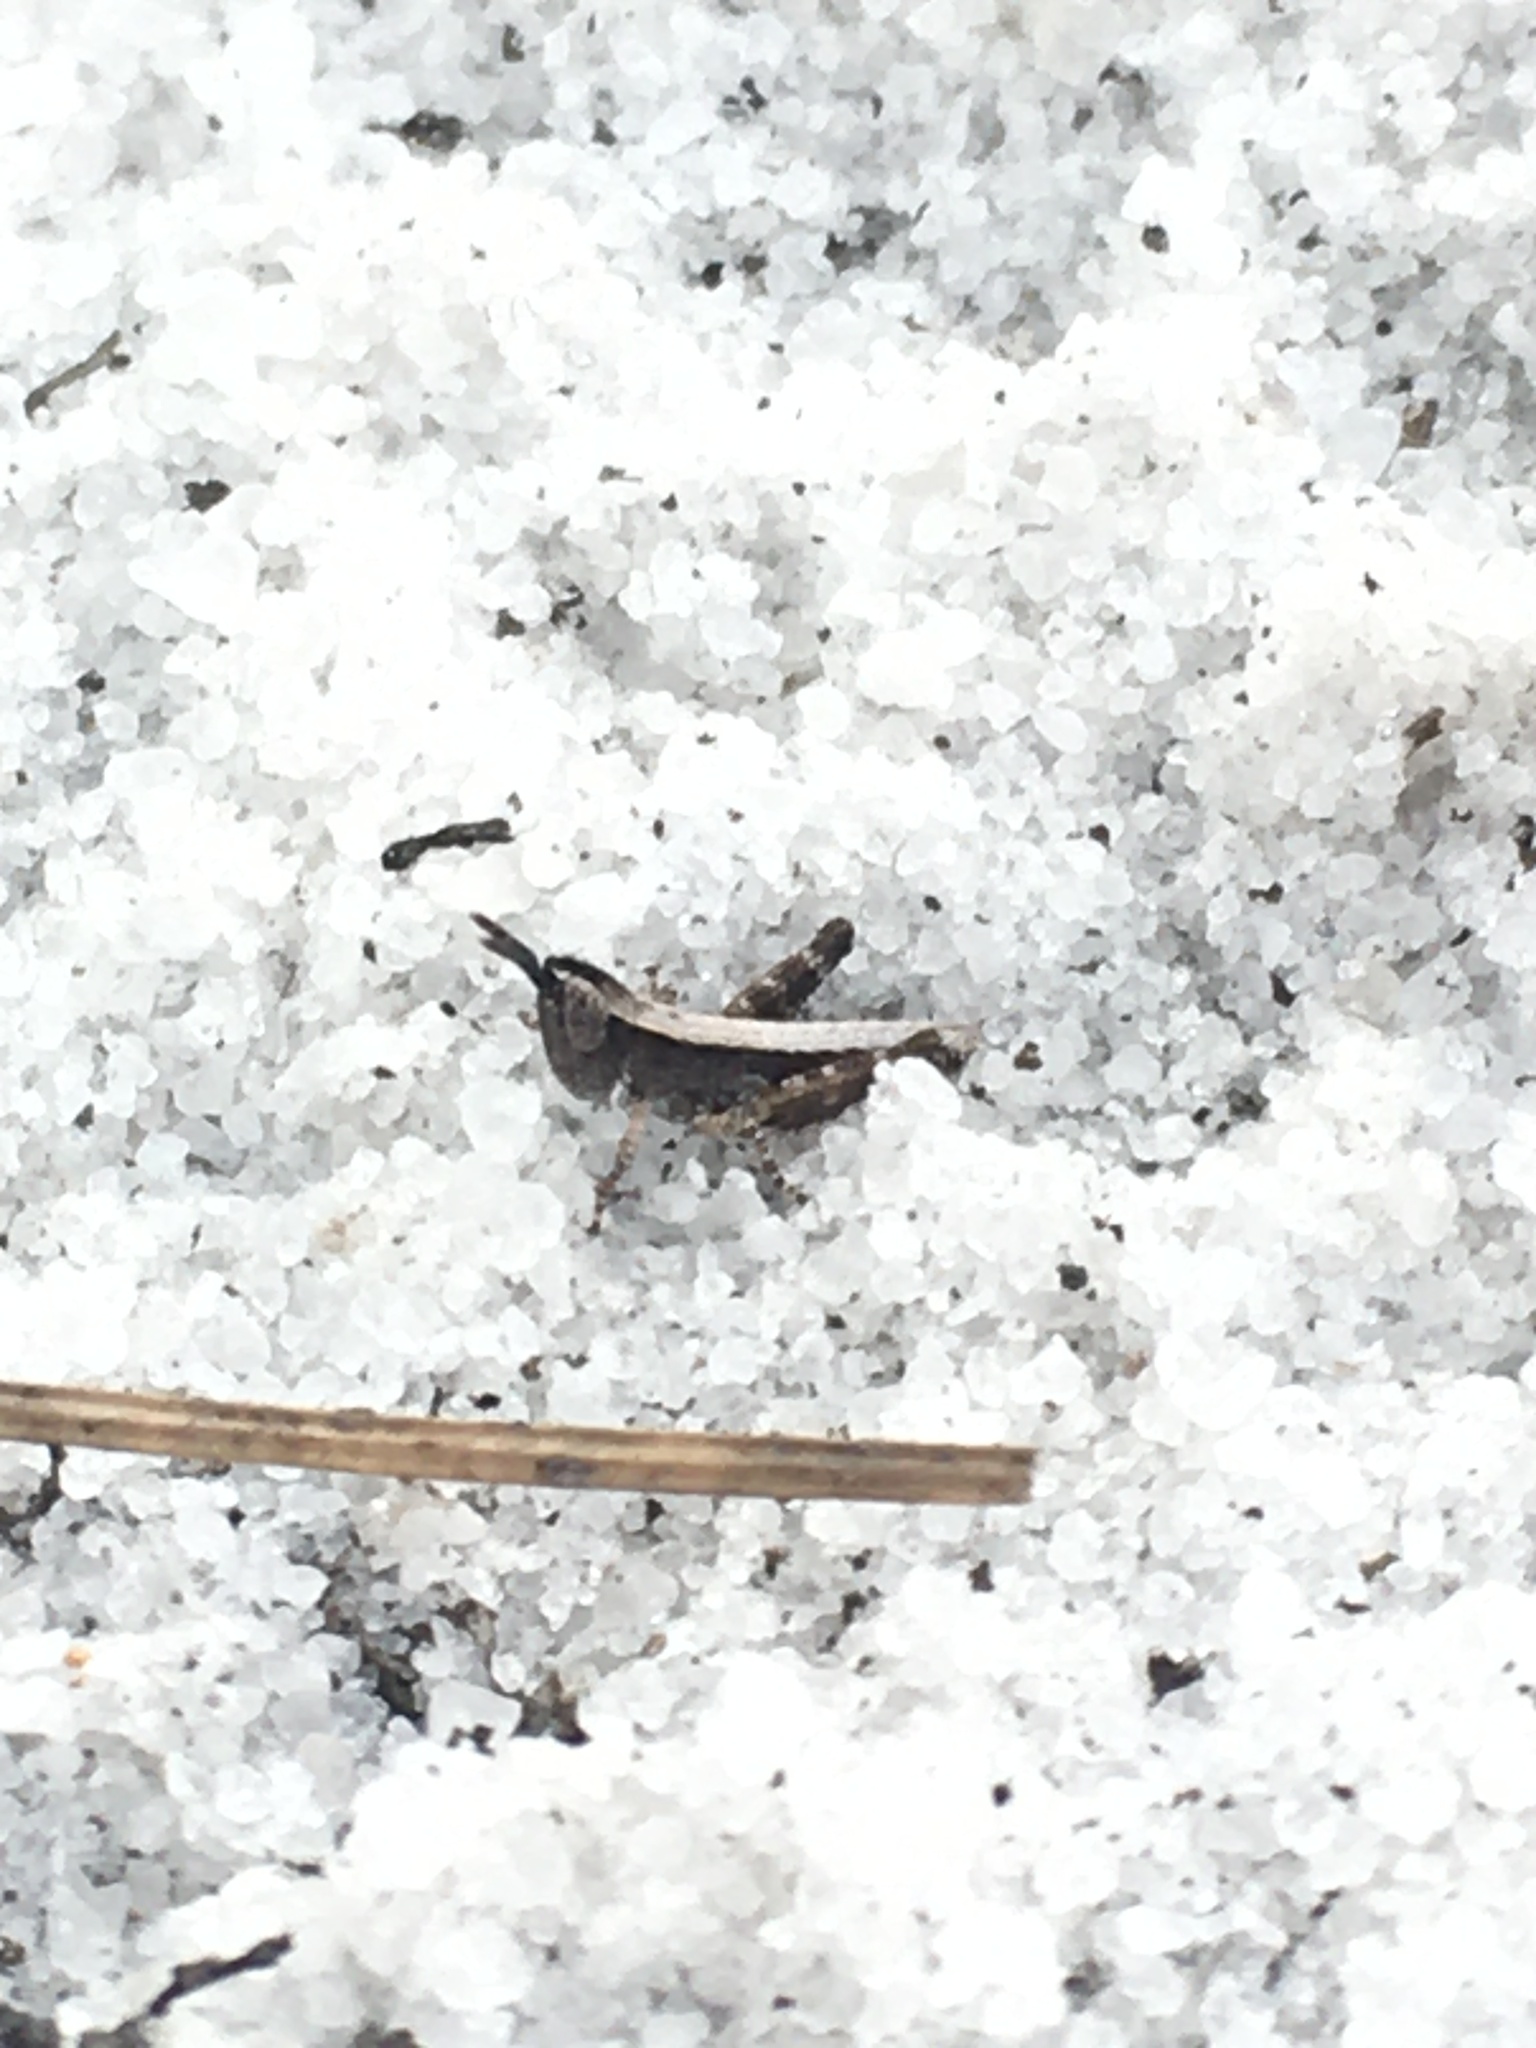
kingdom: Animalia
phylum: Arthropoda
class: Insecta
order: Orthoptera
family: Acrididae
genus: Dichromorpha
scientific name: Dichromorpha viridis
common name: Short-winged green grasshopper
